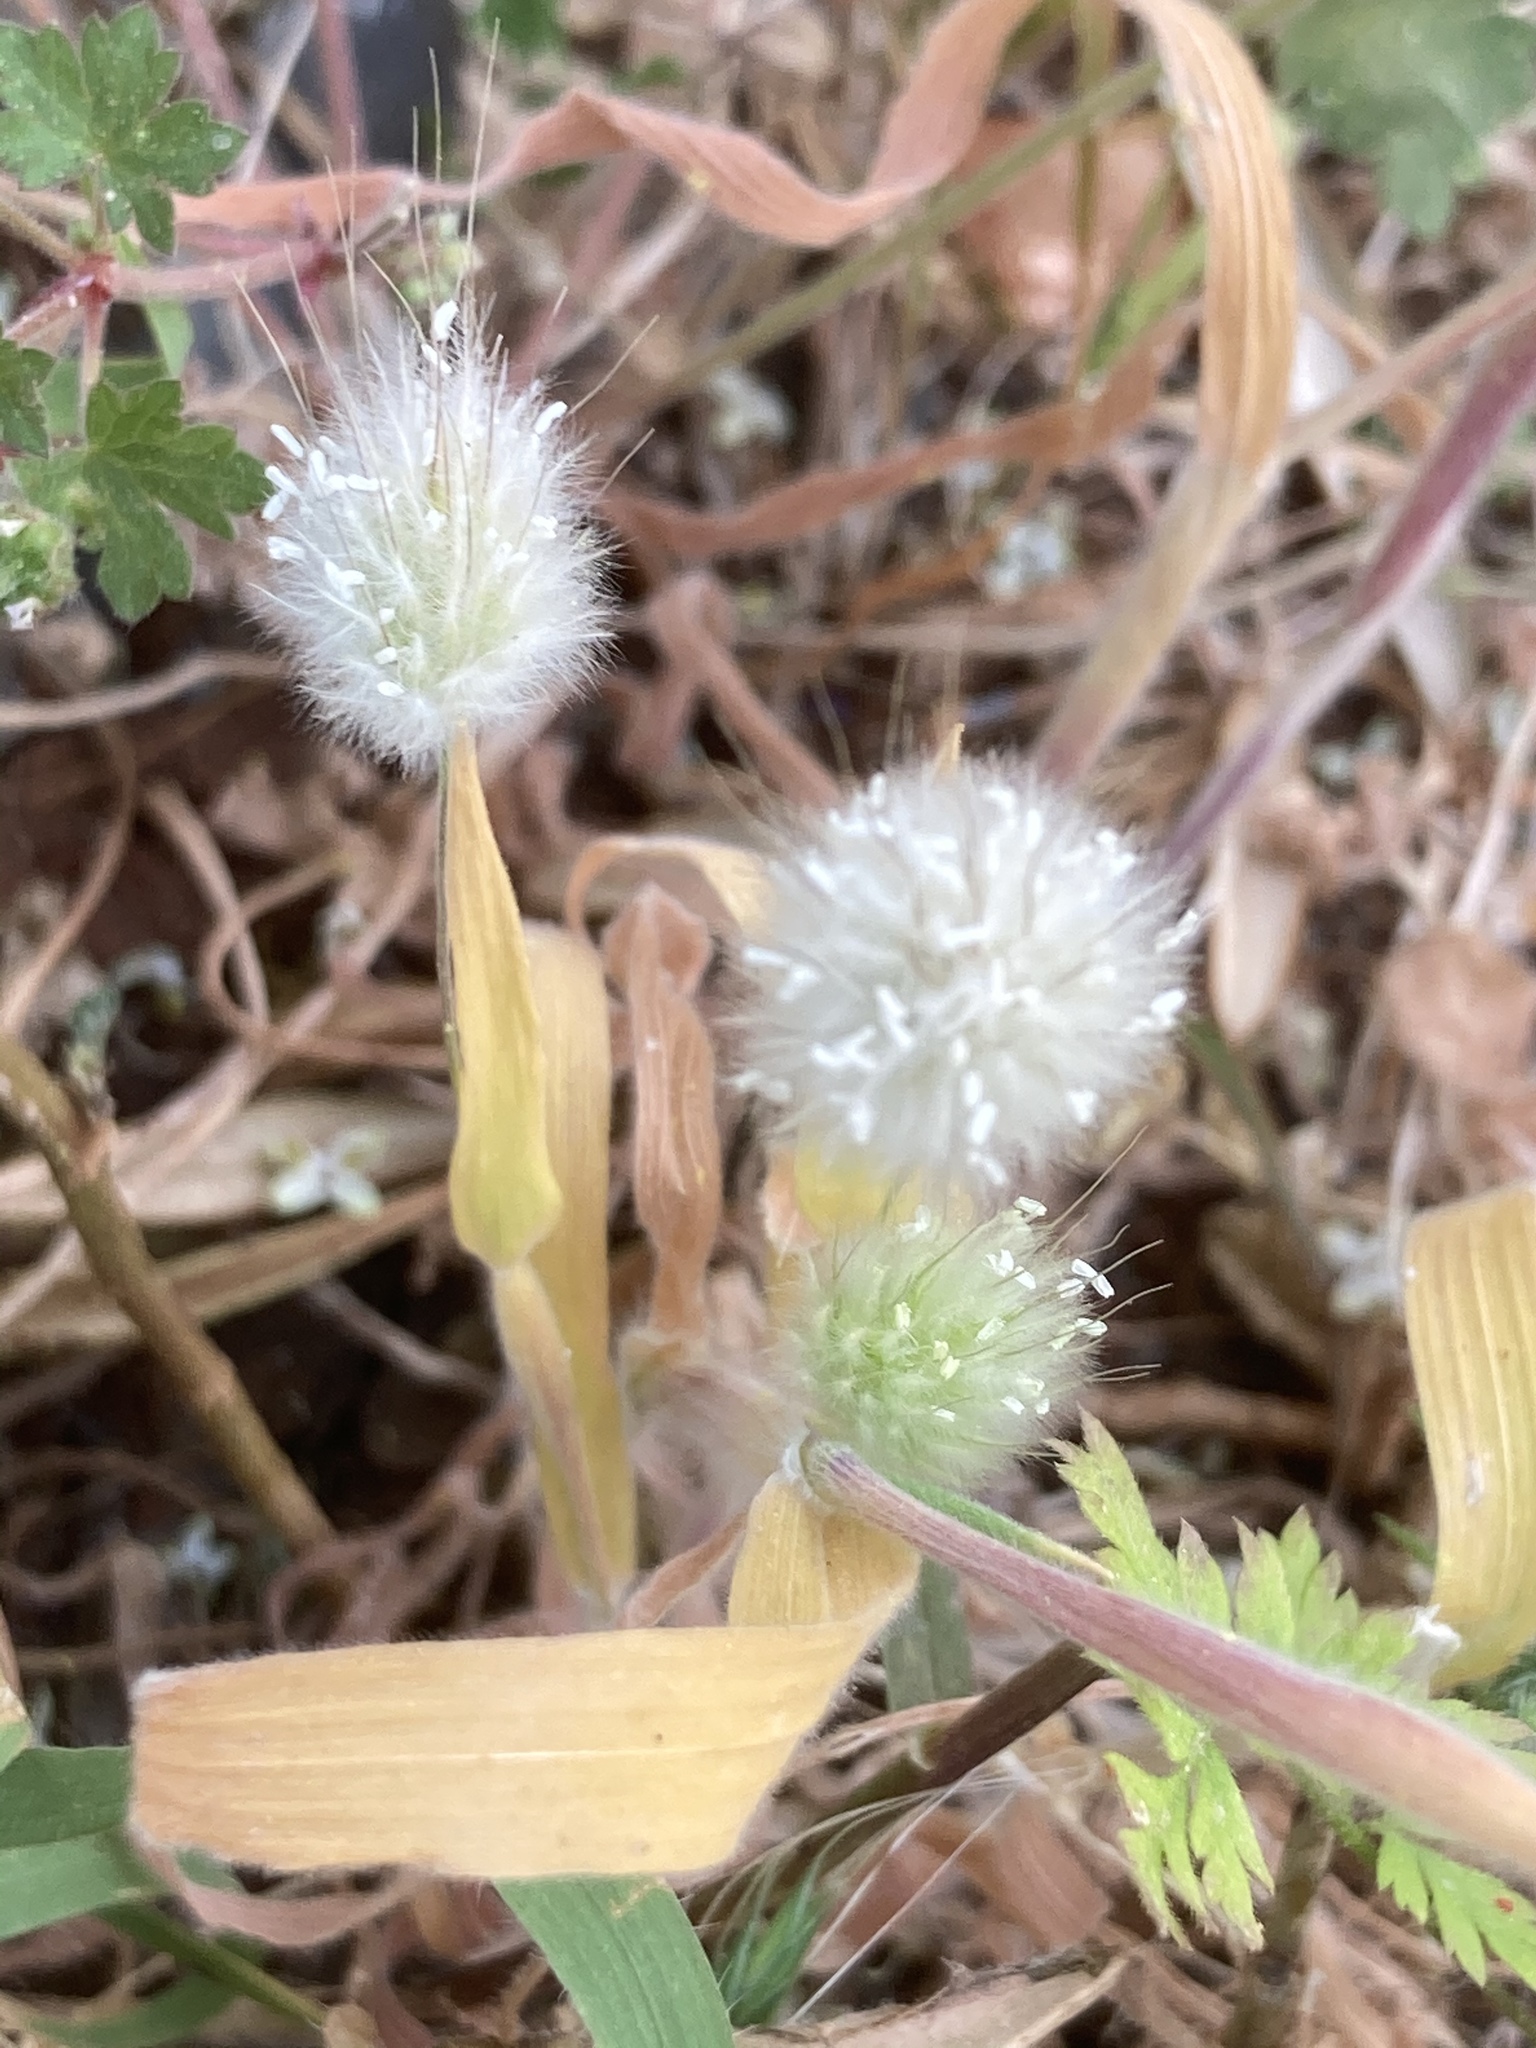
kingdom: Plantae
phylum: Tracheophyta
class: Liliopsida
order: Poales
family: Poaceae
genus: Lagurus
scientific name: Lagurus ovatus
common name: Hare's-tail
